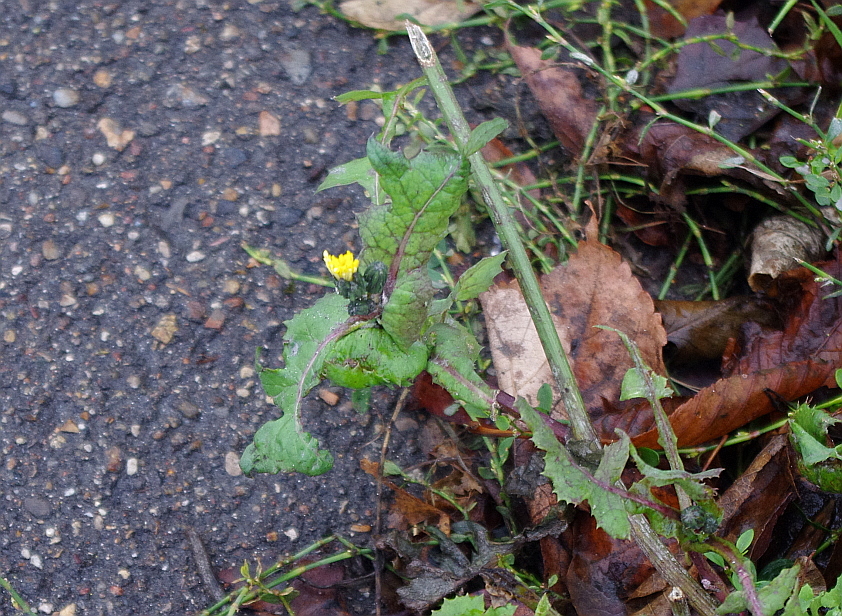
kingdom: Plantae
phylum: Tracheophyta
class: Magnoliopsida
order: Asterales
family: Asteraceae
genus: Sonchus
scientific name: Sonchus oleraceus
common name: Common sowthistle
